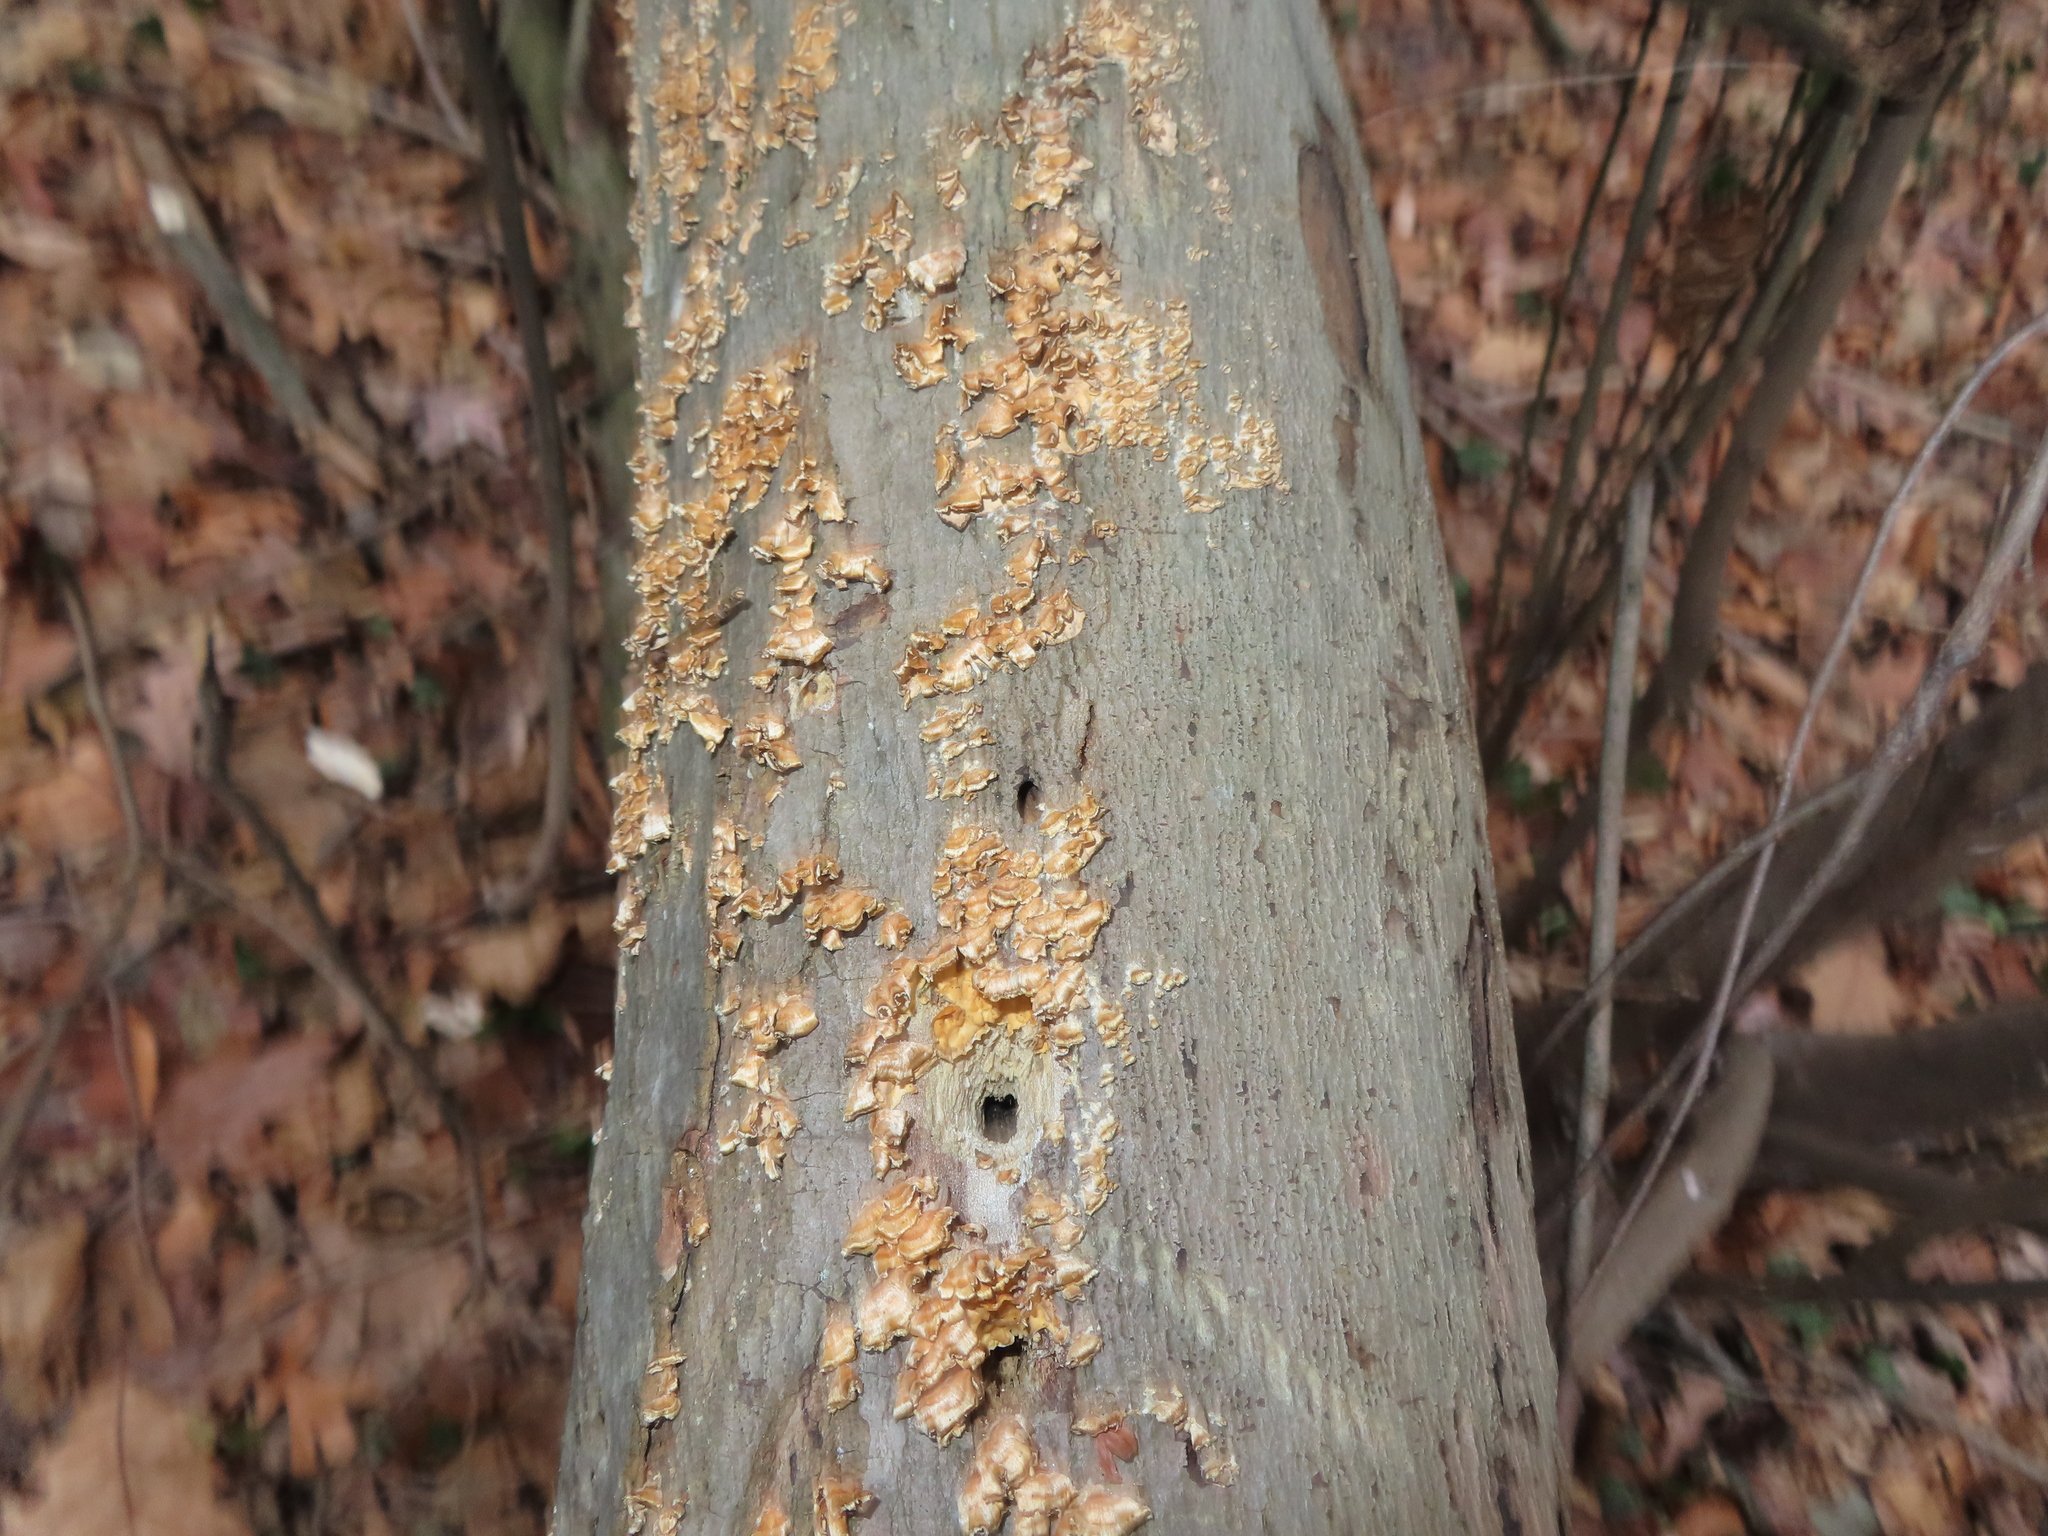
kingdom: Fungi
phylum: Basidiomycota
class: Agaricomycetes
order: Russulales
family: Stereaceae
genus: Stereum
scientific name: Stereum complicatum
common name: Crowded parchment
